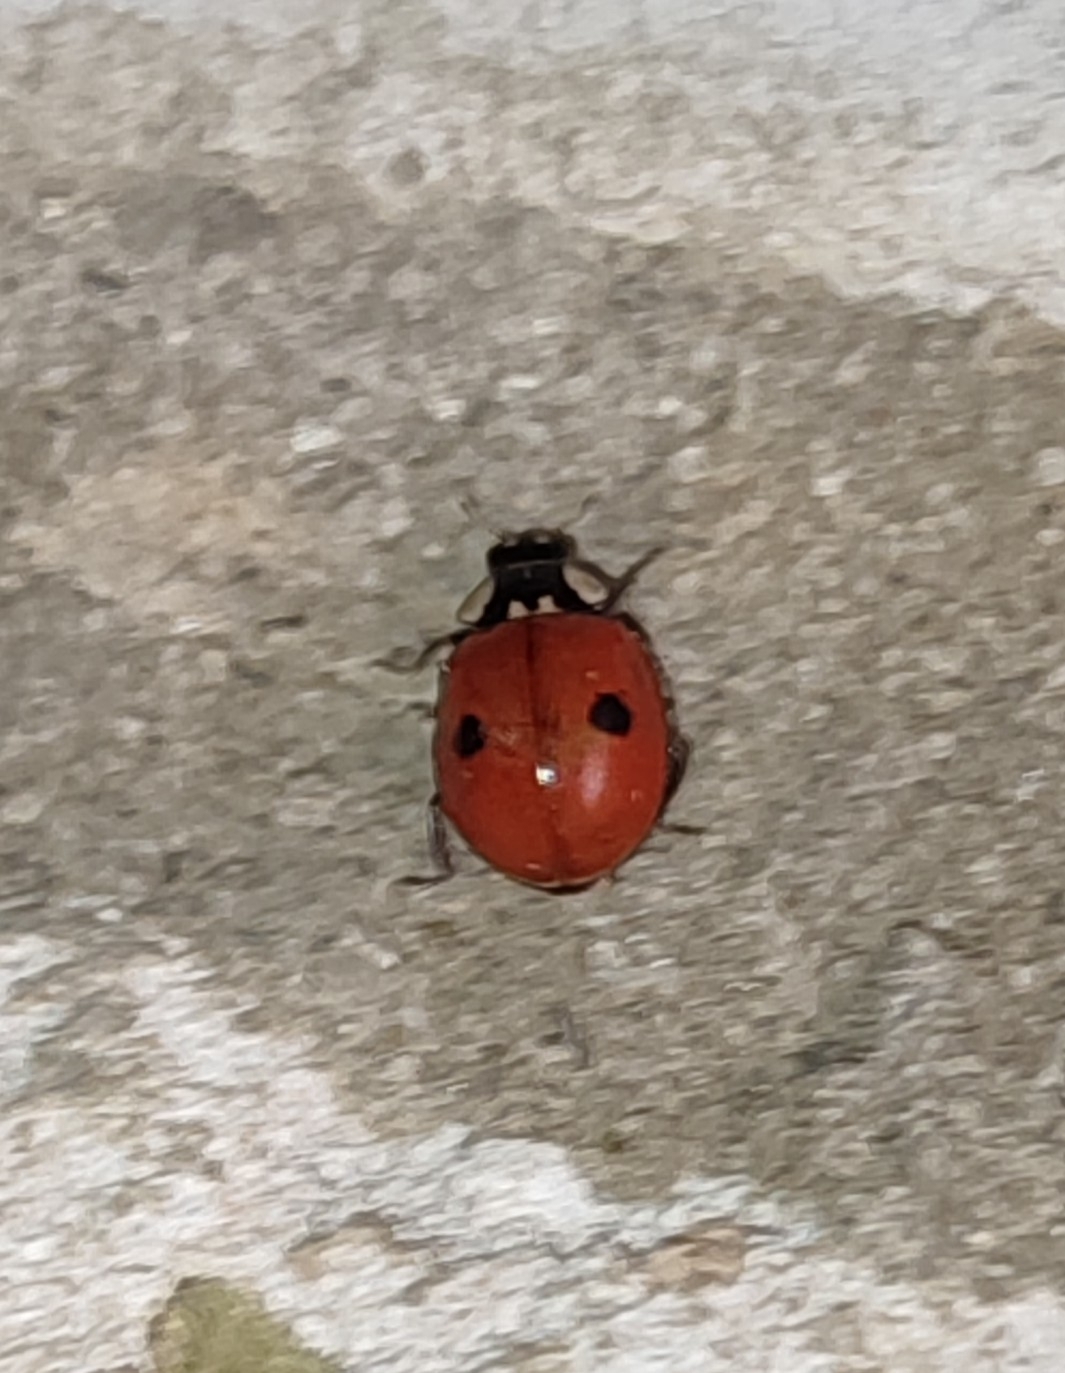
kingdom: Animalia
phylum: Arthropoda
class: Insecta
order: Coleoptera
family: Coccinellidae
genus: Adalia
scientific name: Adalia bipunctata
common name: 2-spot ladybird
